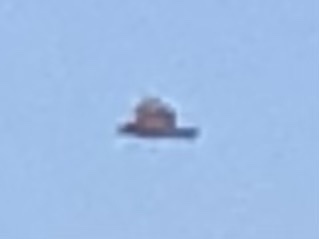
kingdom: Animalia
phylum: Chordata
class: Aves
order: Accipitriformes
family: Accipitridae
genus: Buteo
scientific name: Buteo buteo
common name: Common buzzard
